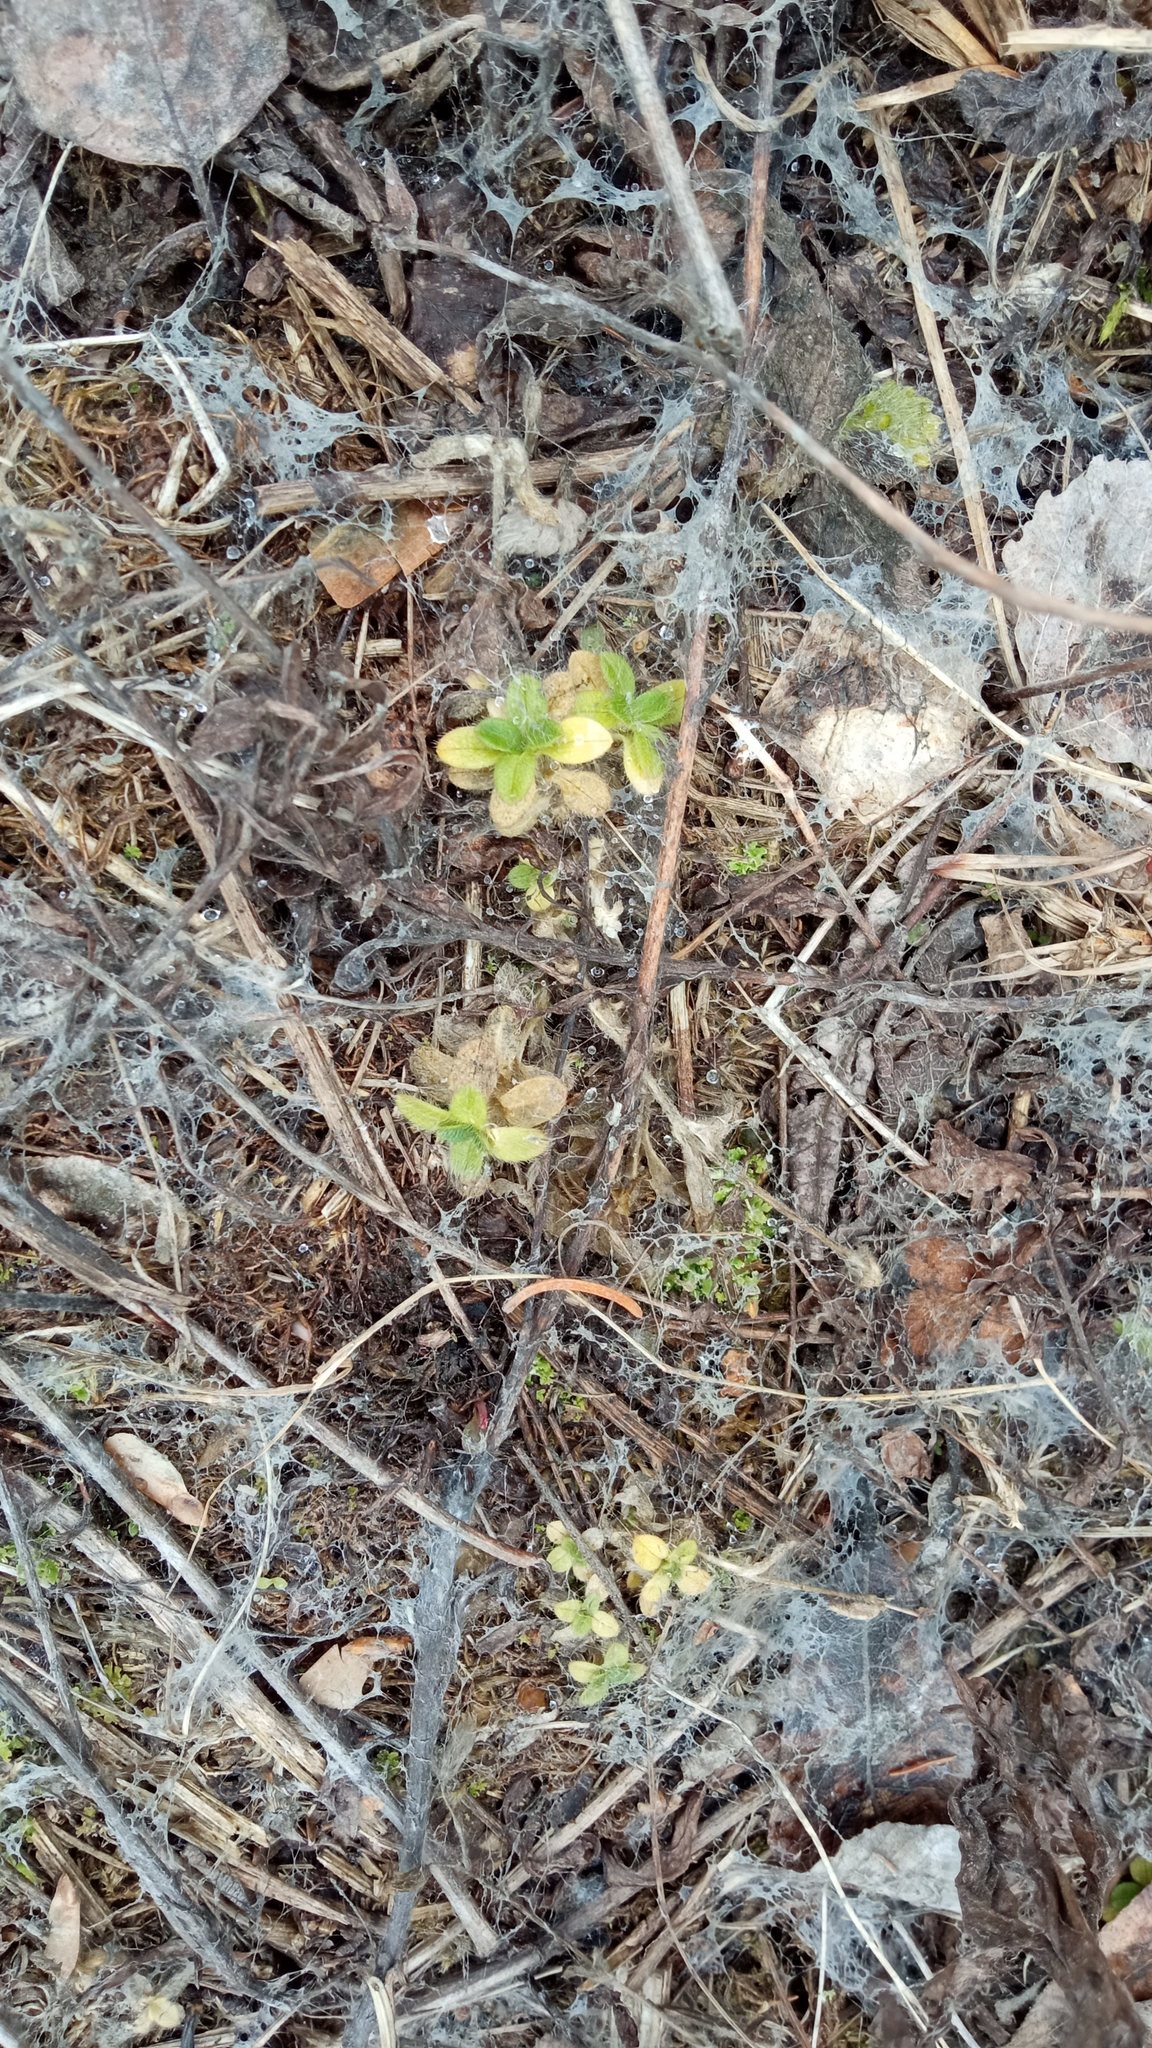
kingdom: Plantae
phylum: Tracheophyta
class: Magnoliopsida
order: Caryophyllales
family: Caryophyllaceae
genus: Cerastium
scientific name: Cerastium holosteoides
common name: Big chickweed
